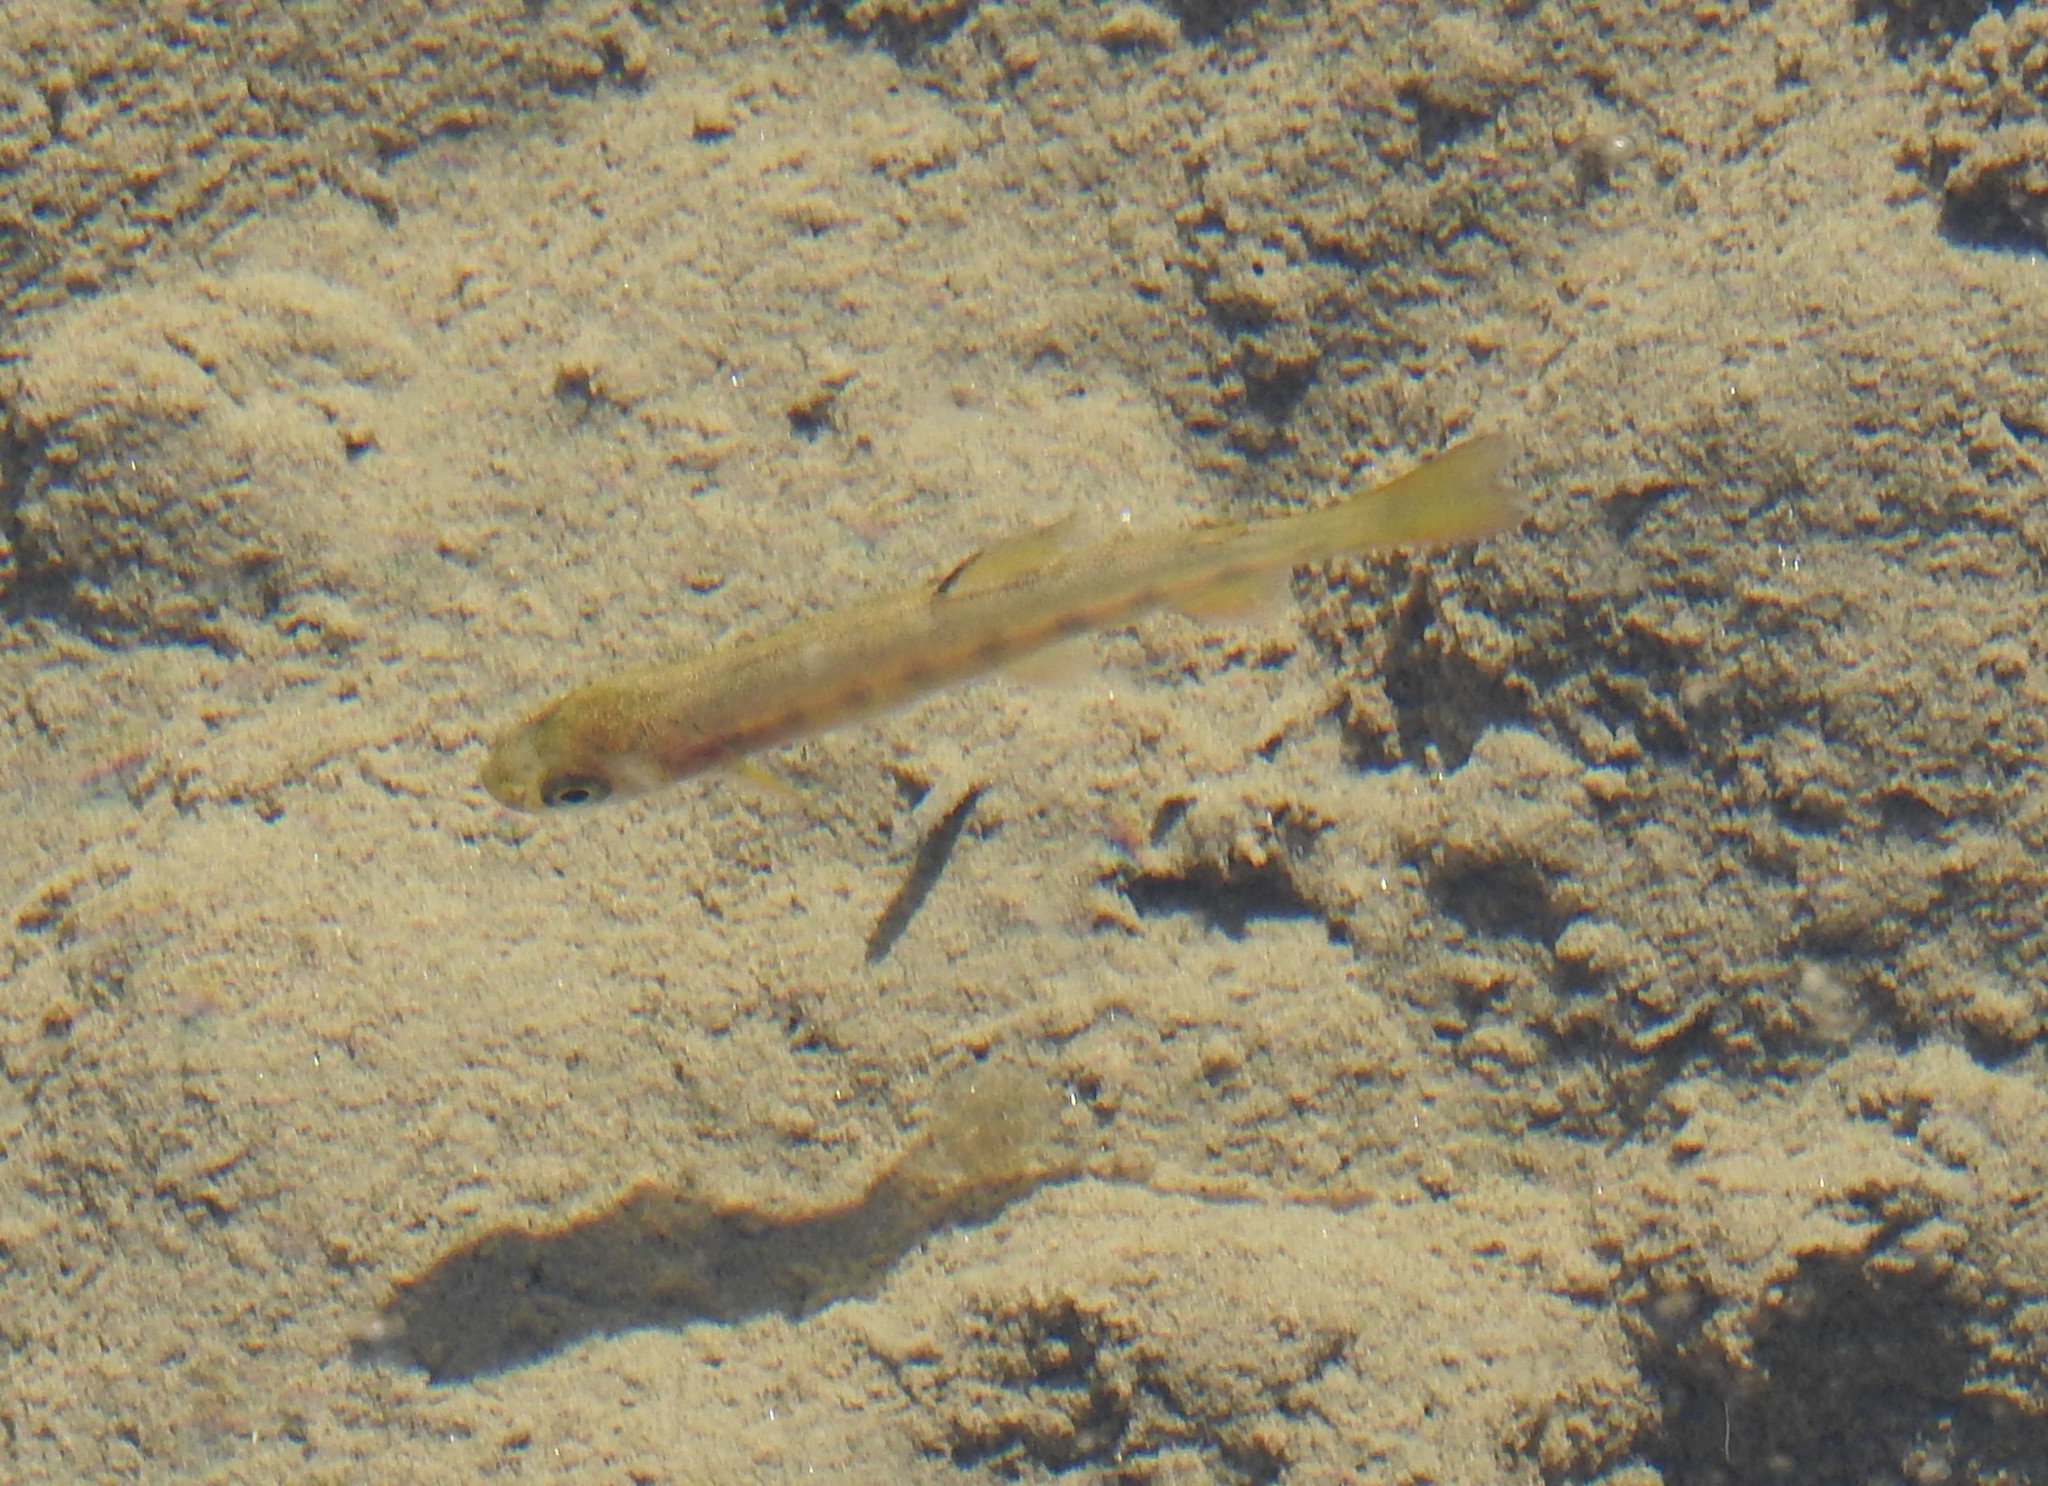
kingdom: Animalia
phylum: Chordata
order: Salmoniformes
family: Salmonidae
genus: Oncorhynchus
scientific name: Oncorhynchus kisutch
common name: Coho salmon
